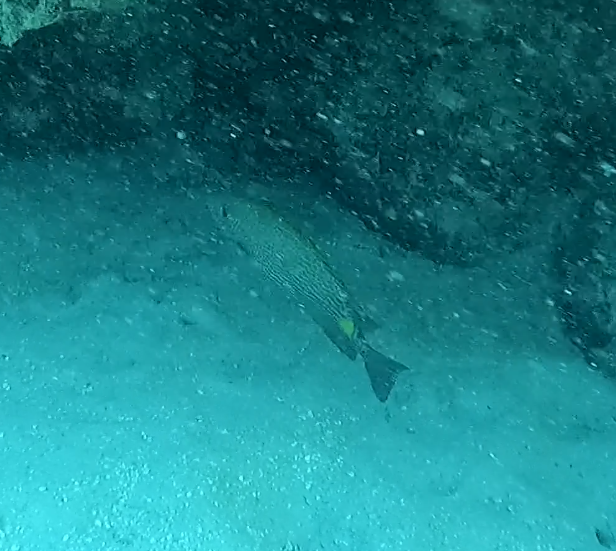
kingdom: Animalia
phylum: Chordata
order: Perciformes
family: Siganidae
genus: Siganus
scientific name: Siganus lineatus
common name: Lined rabbitfish
